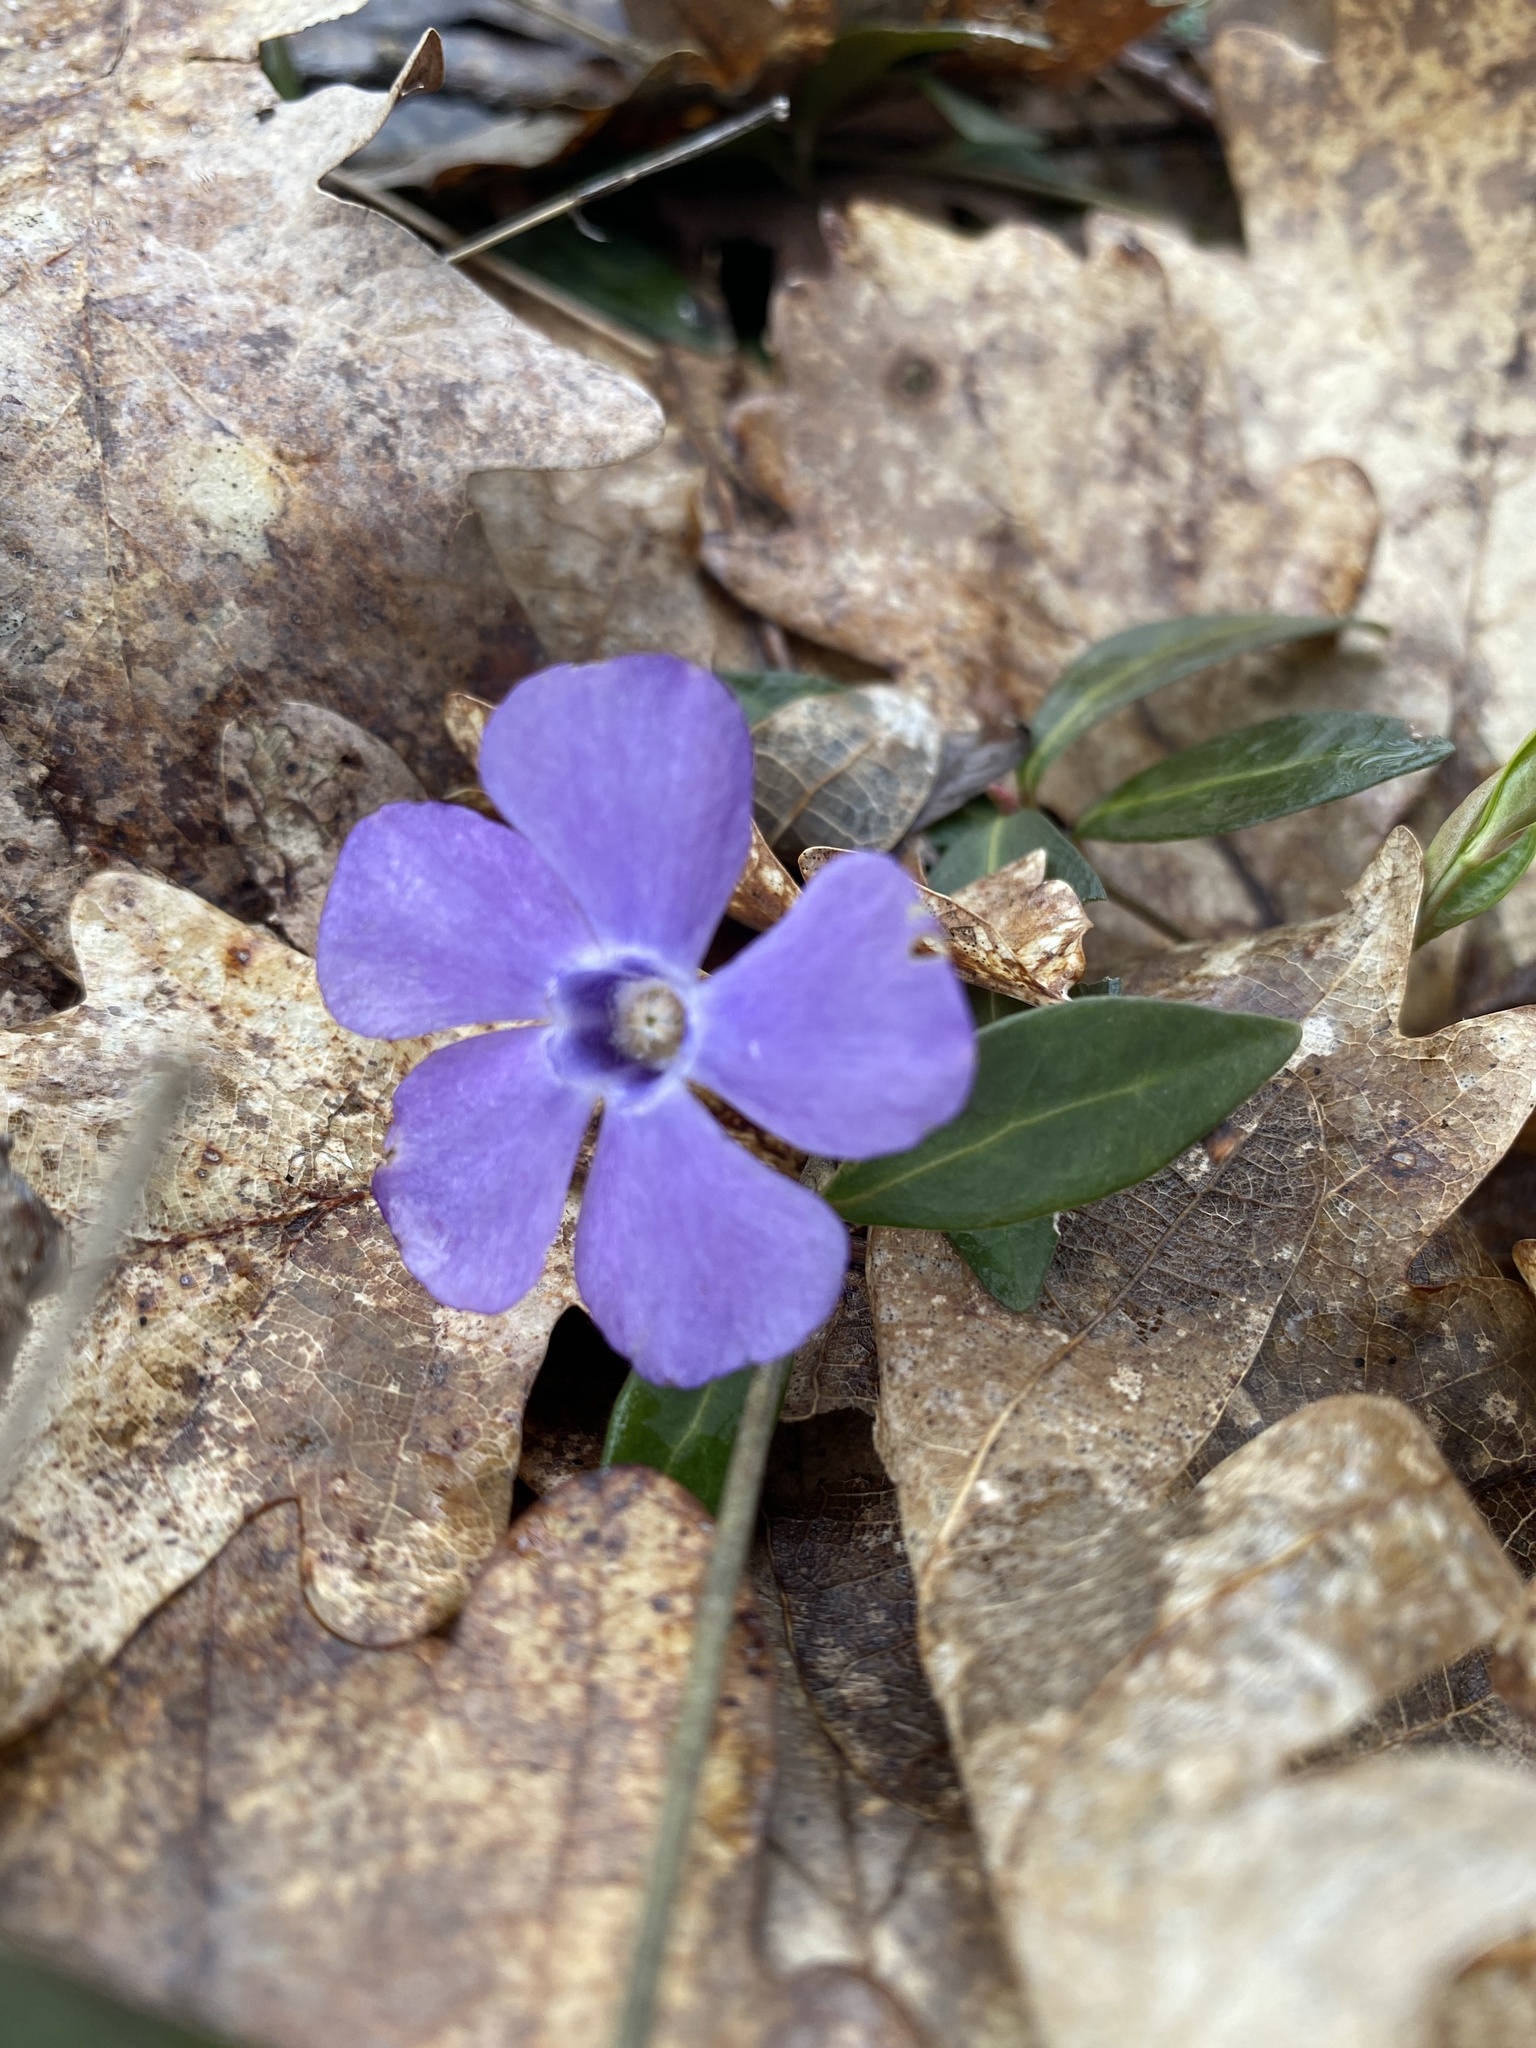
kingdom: Plantae
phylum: Tracheophyta
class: Magnoliopsida
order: Gentianales
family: Apocynaceae
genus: Vinca
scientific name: Vinca minor
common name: Lesser periwinkle
